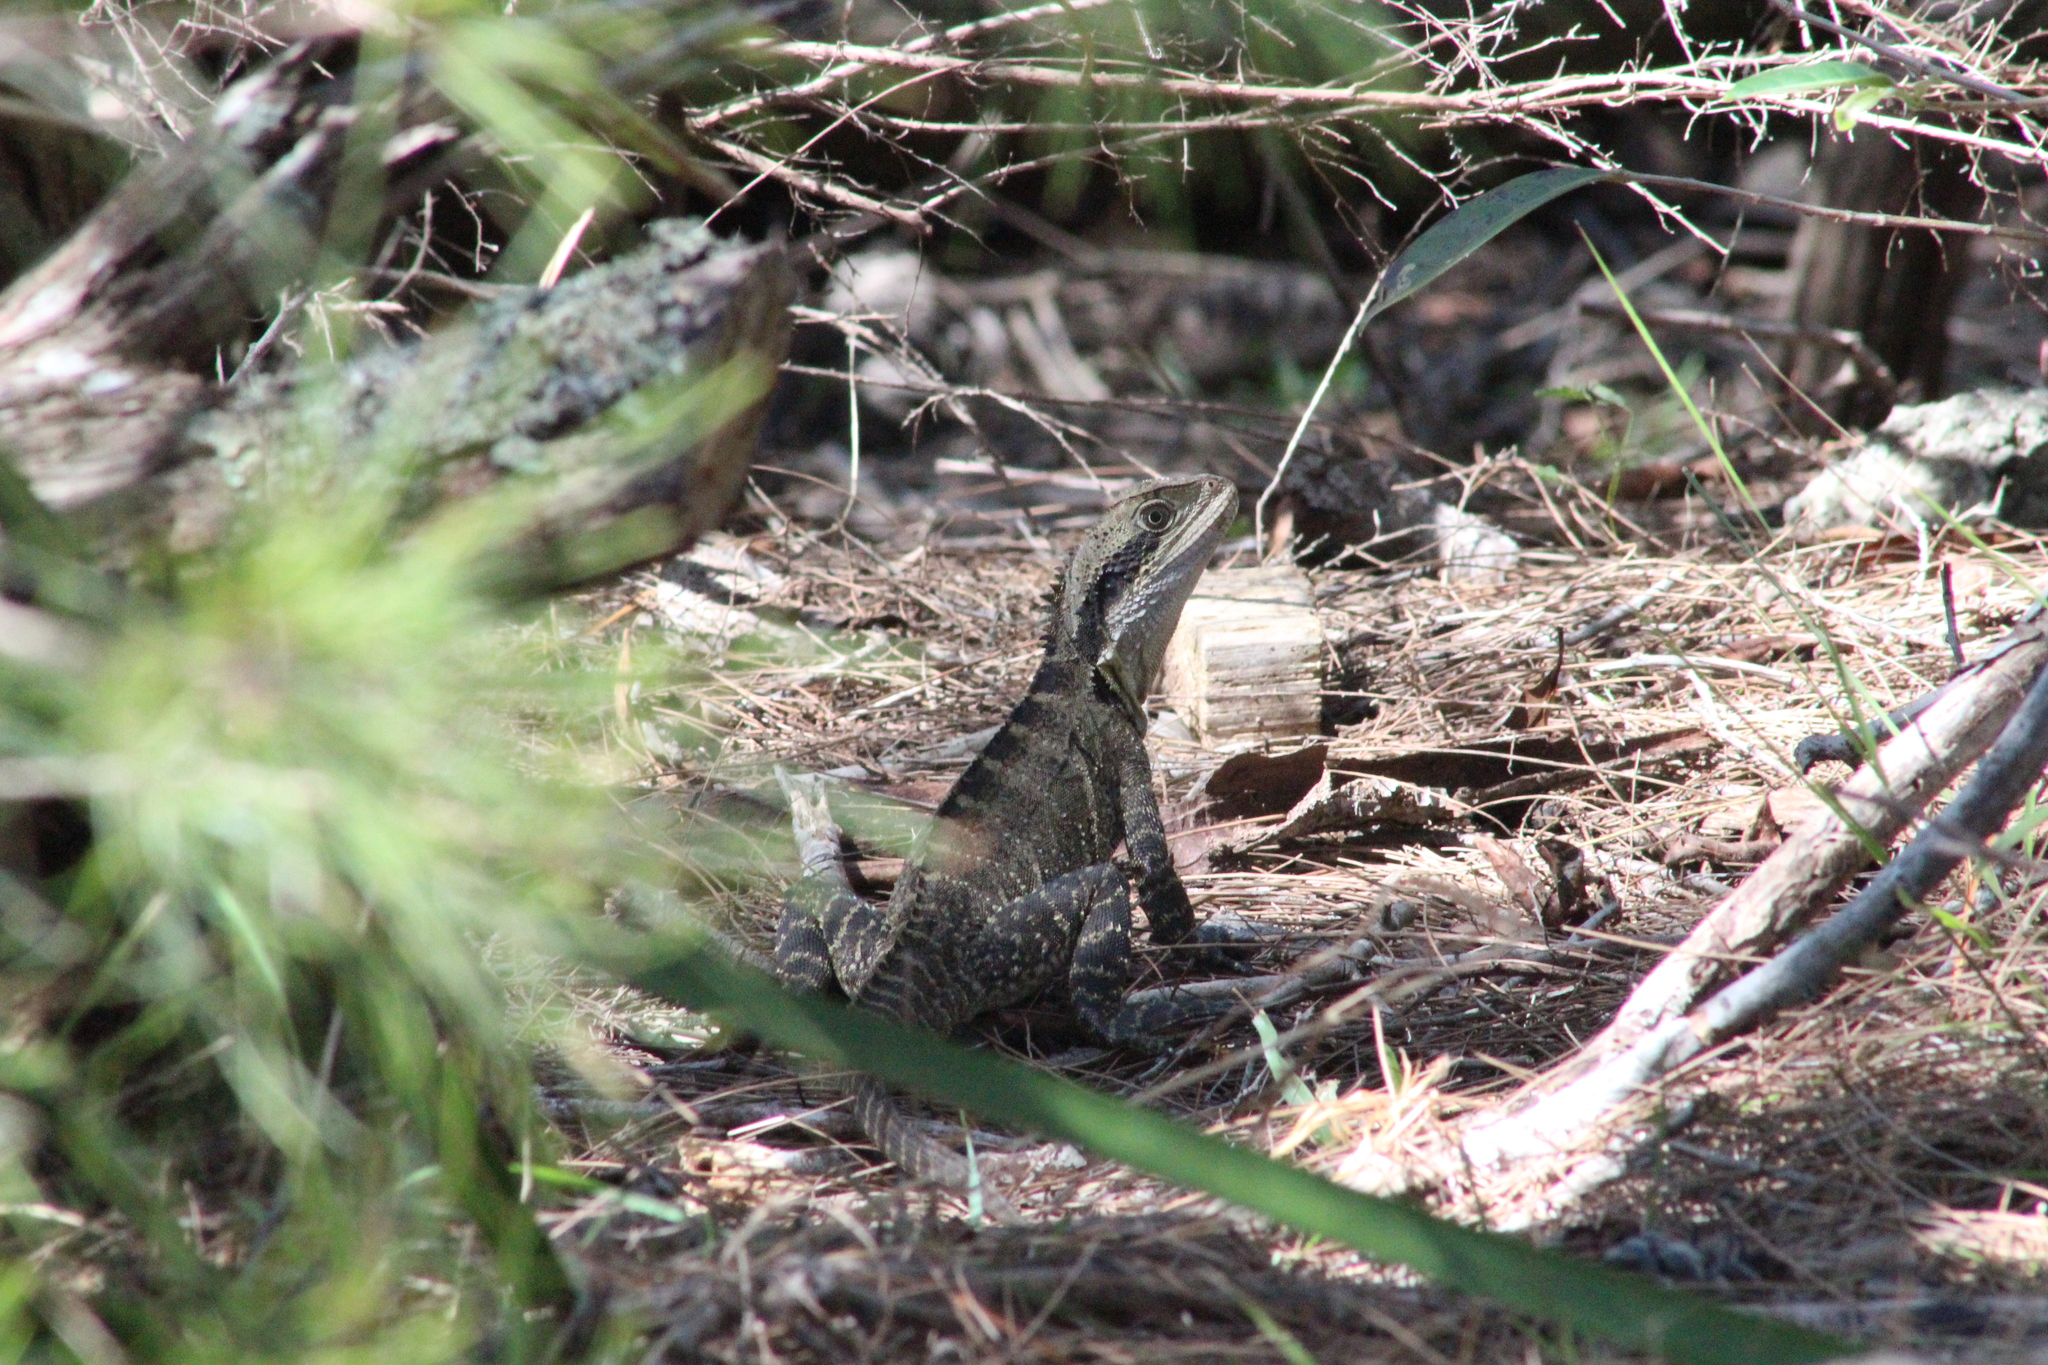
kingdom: Animalia
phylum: Chordata
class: Squamata
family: Agamidae
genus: Intellagama
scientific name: Intellagama lesueurii
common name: Eastern water dragon
